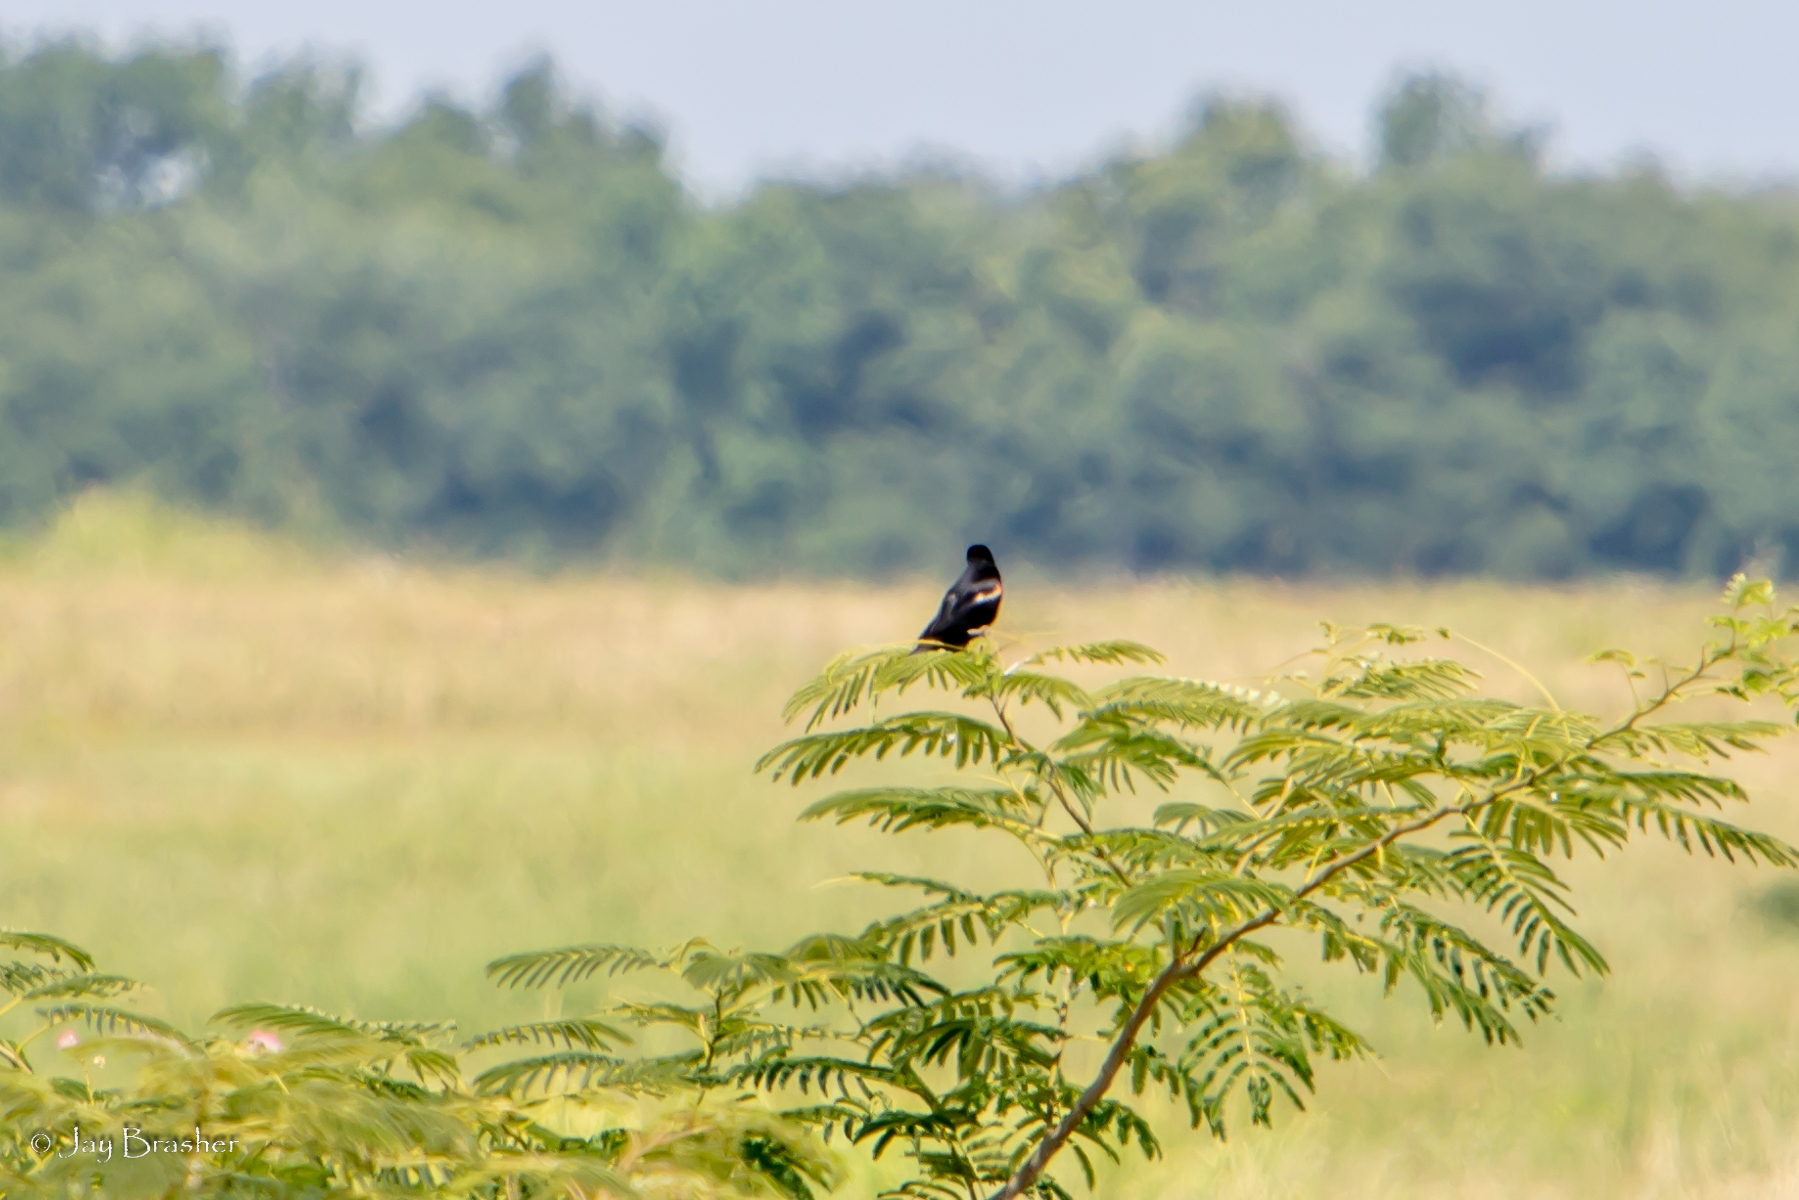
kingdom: Animalia
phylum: Chordata
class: Aves
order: Passeriformes
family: Icteridae
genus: Agelaius
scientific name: Agelaius phoeniceus
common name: Red-winged blackbird
